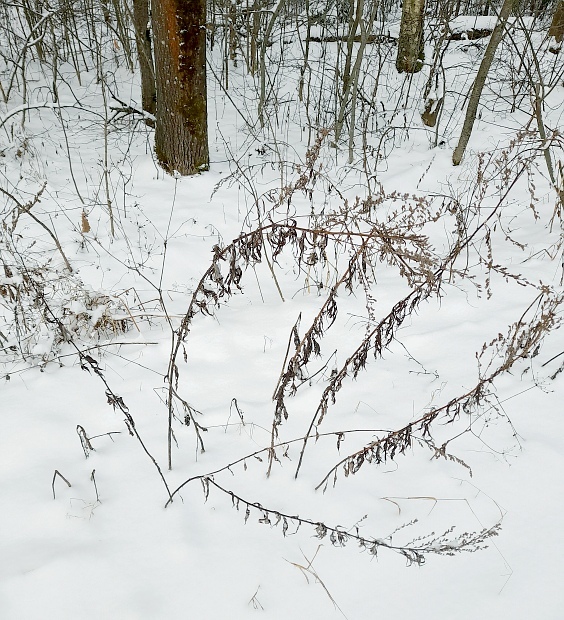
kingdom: Plantae
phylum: Tracheophyta
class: Magnoliopsida
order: Asterales
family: Asteraceae
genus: Artemisia
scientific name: Artemisia vulgaris
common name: Mugwort
